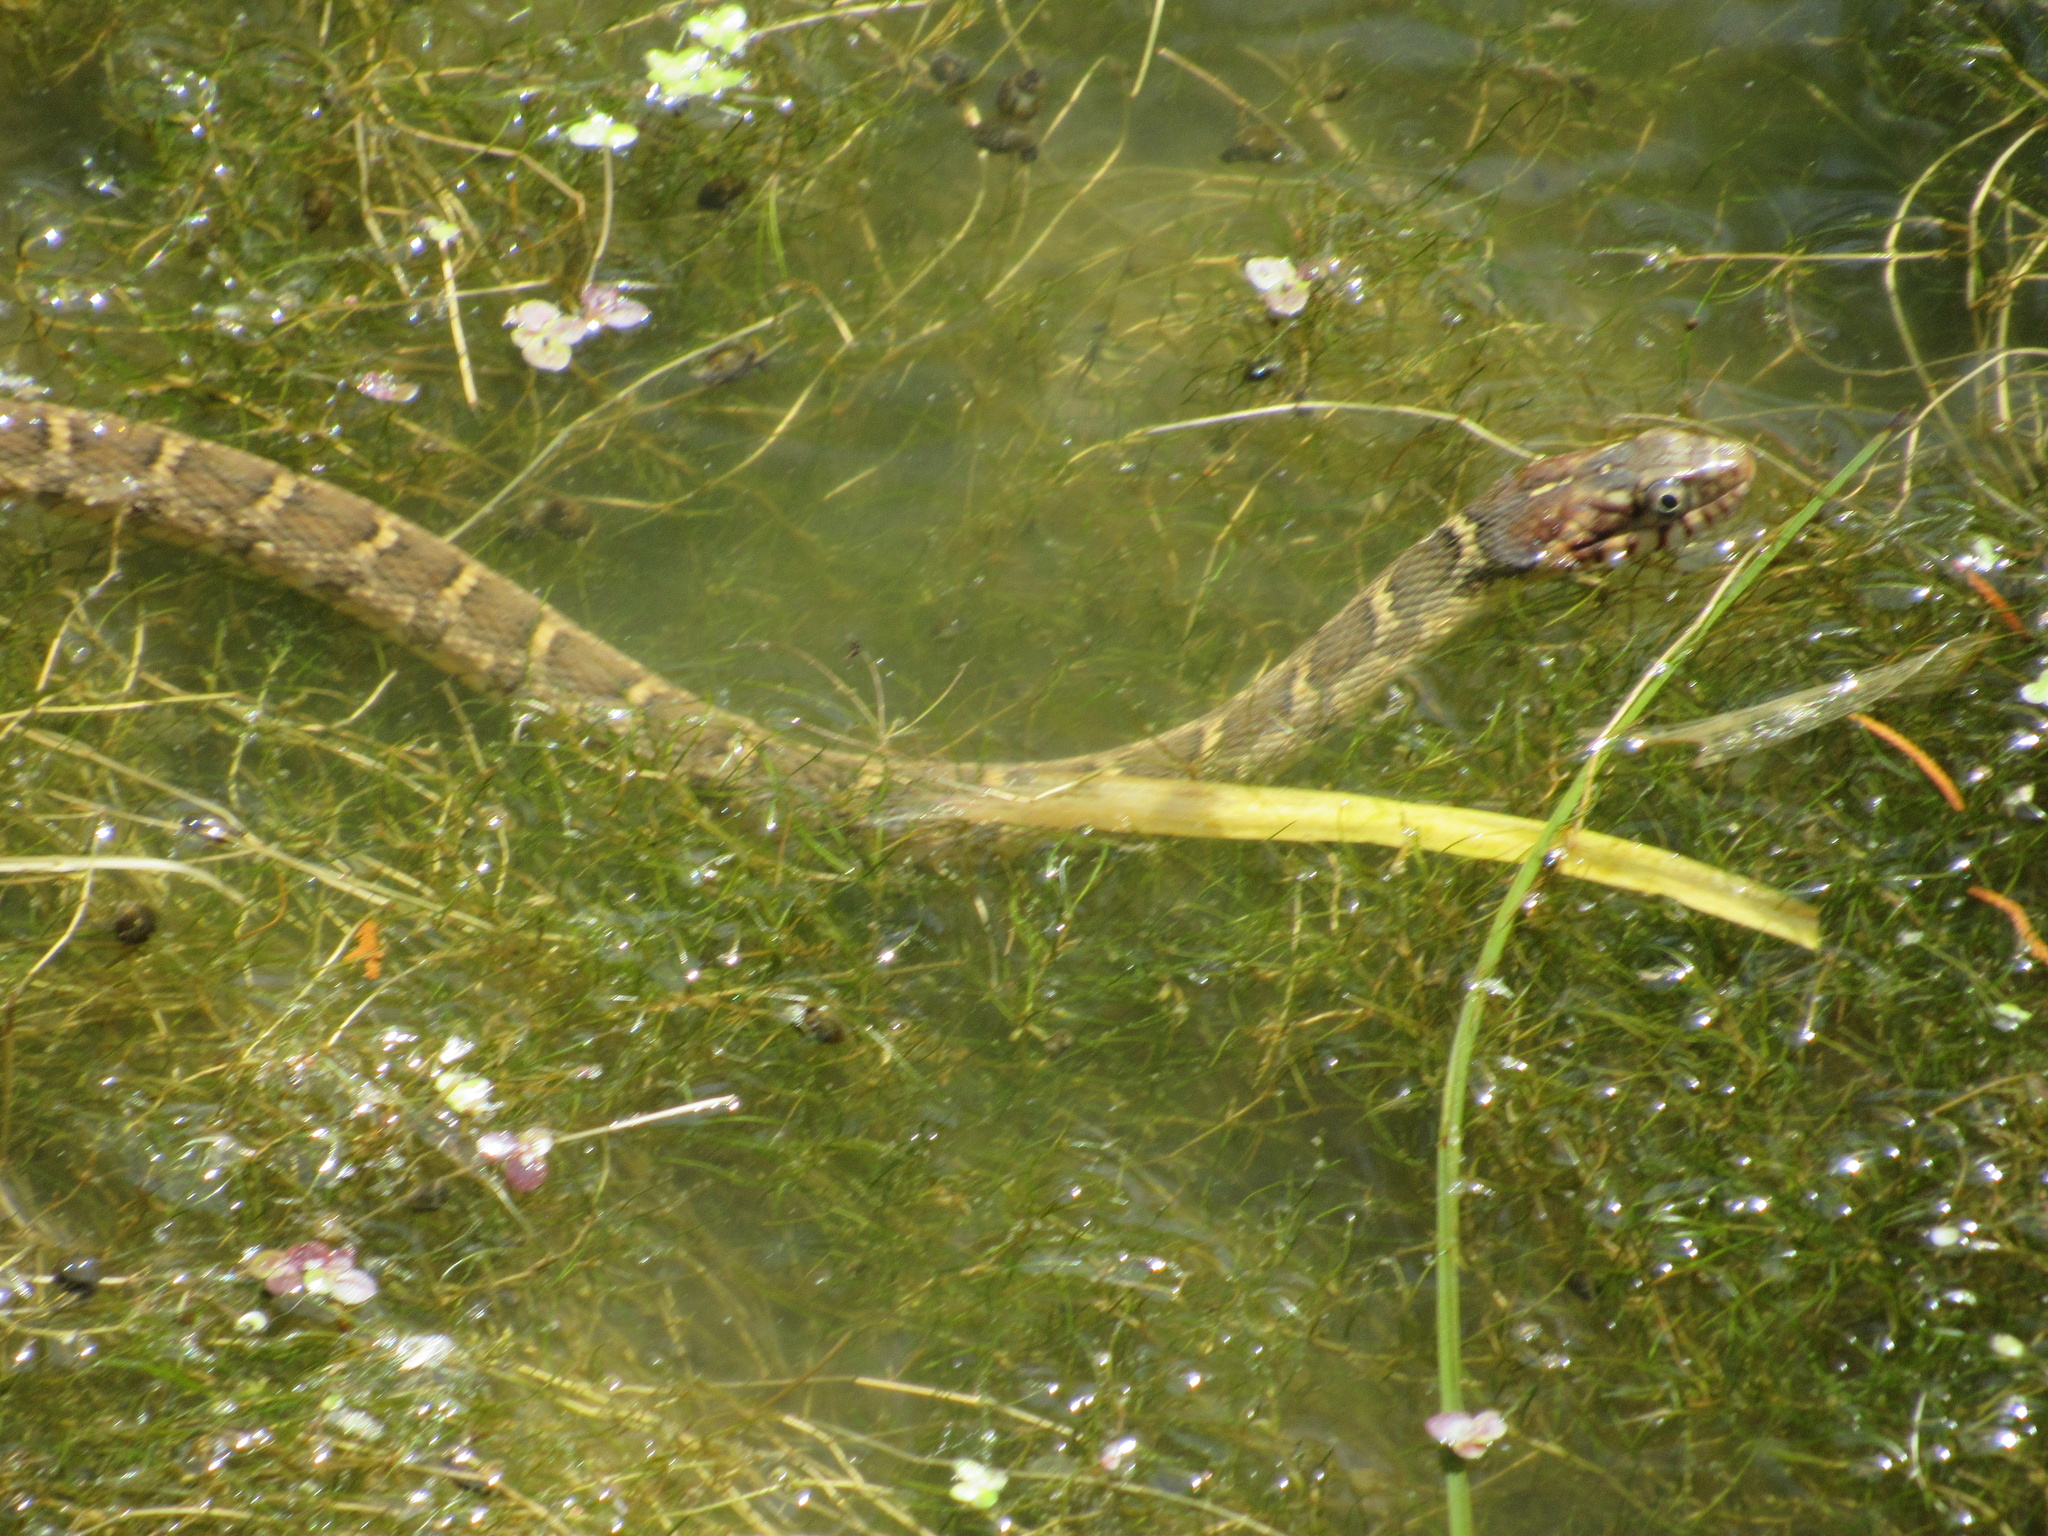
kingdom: Animalia
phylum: Chordata
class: Squamata
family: Colubridae
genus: Nerodia
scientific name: Nerodia erythrogaster
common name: Plainbelly water snake
